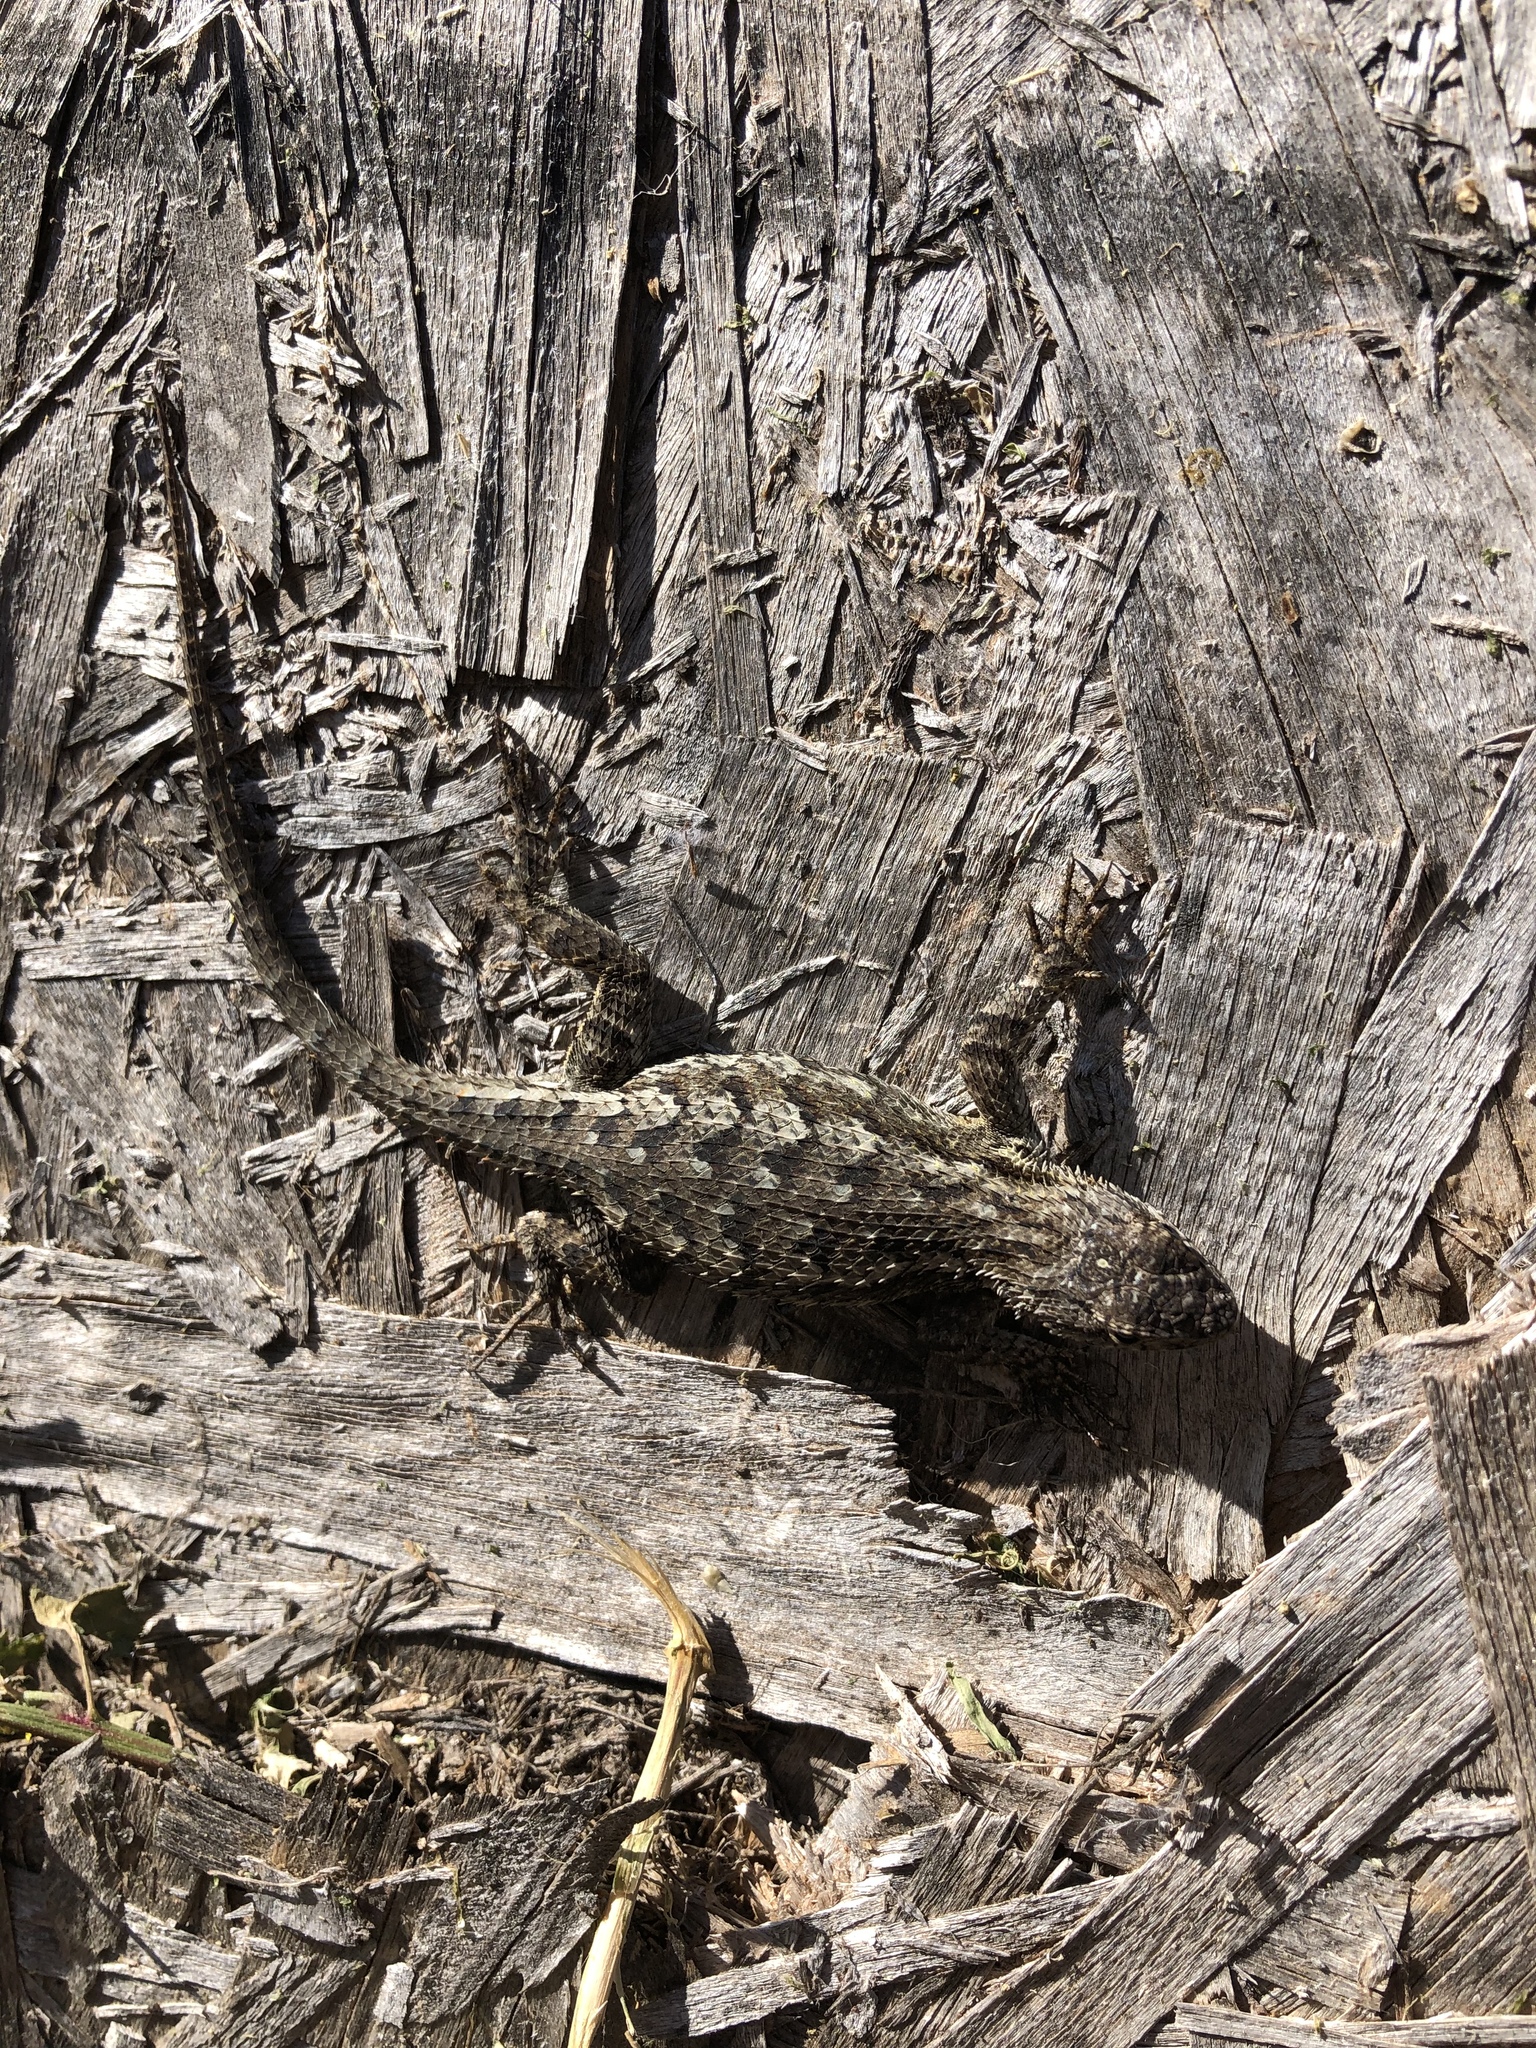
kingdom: Animalia
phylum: Chordata
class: Squamata
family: Phrynosomatidae
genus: Sceloporus
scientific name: Sceloporus occidentalis
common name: Western fence lizard
